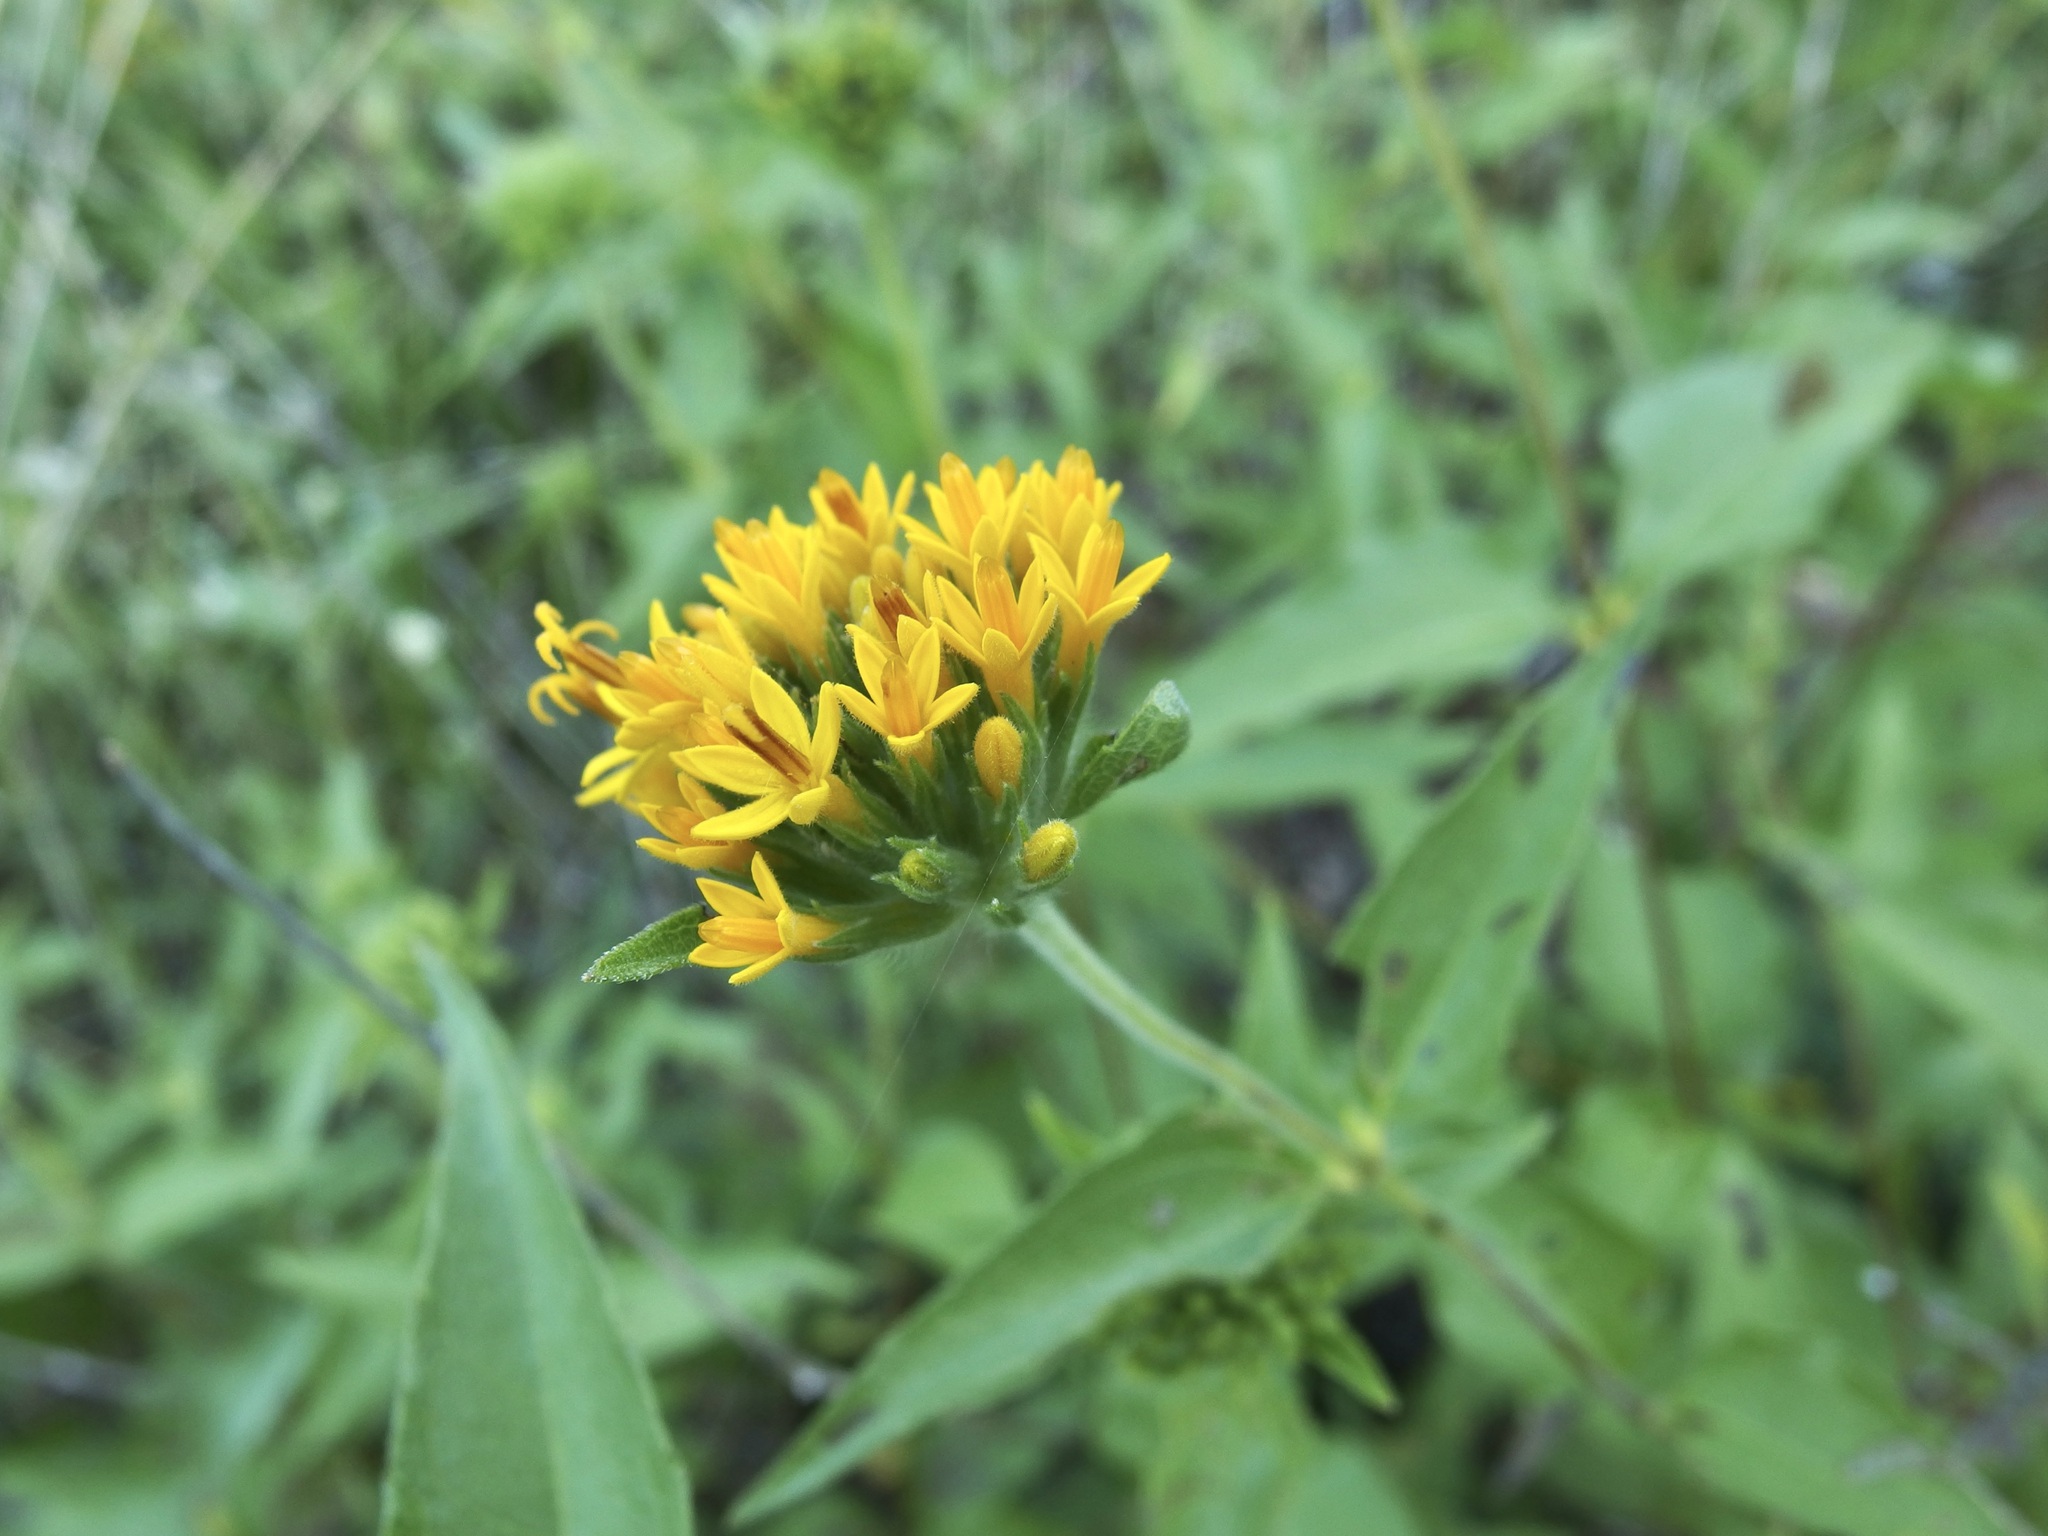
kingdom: Plantae
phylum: Tracheophyta
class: Magnoliopsida
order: Asterales
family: Asteraceae
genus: Lagascea
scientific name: Lagascea decipiens
